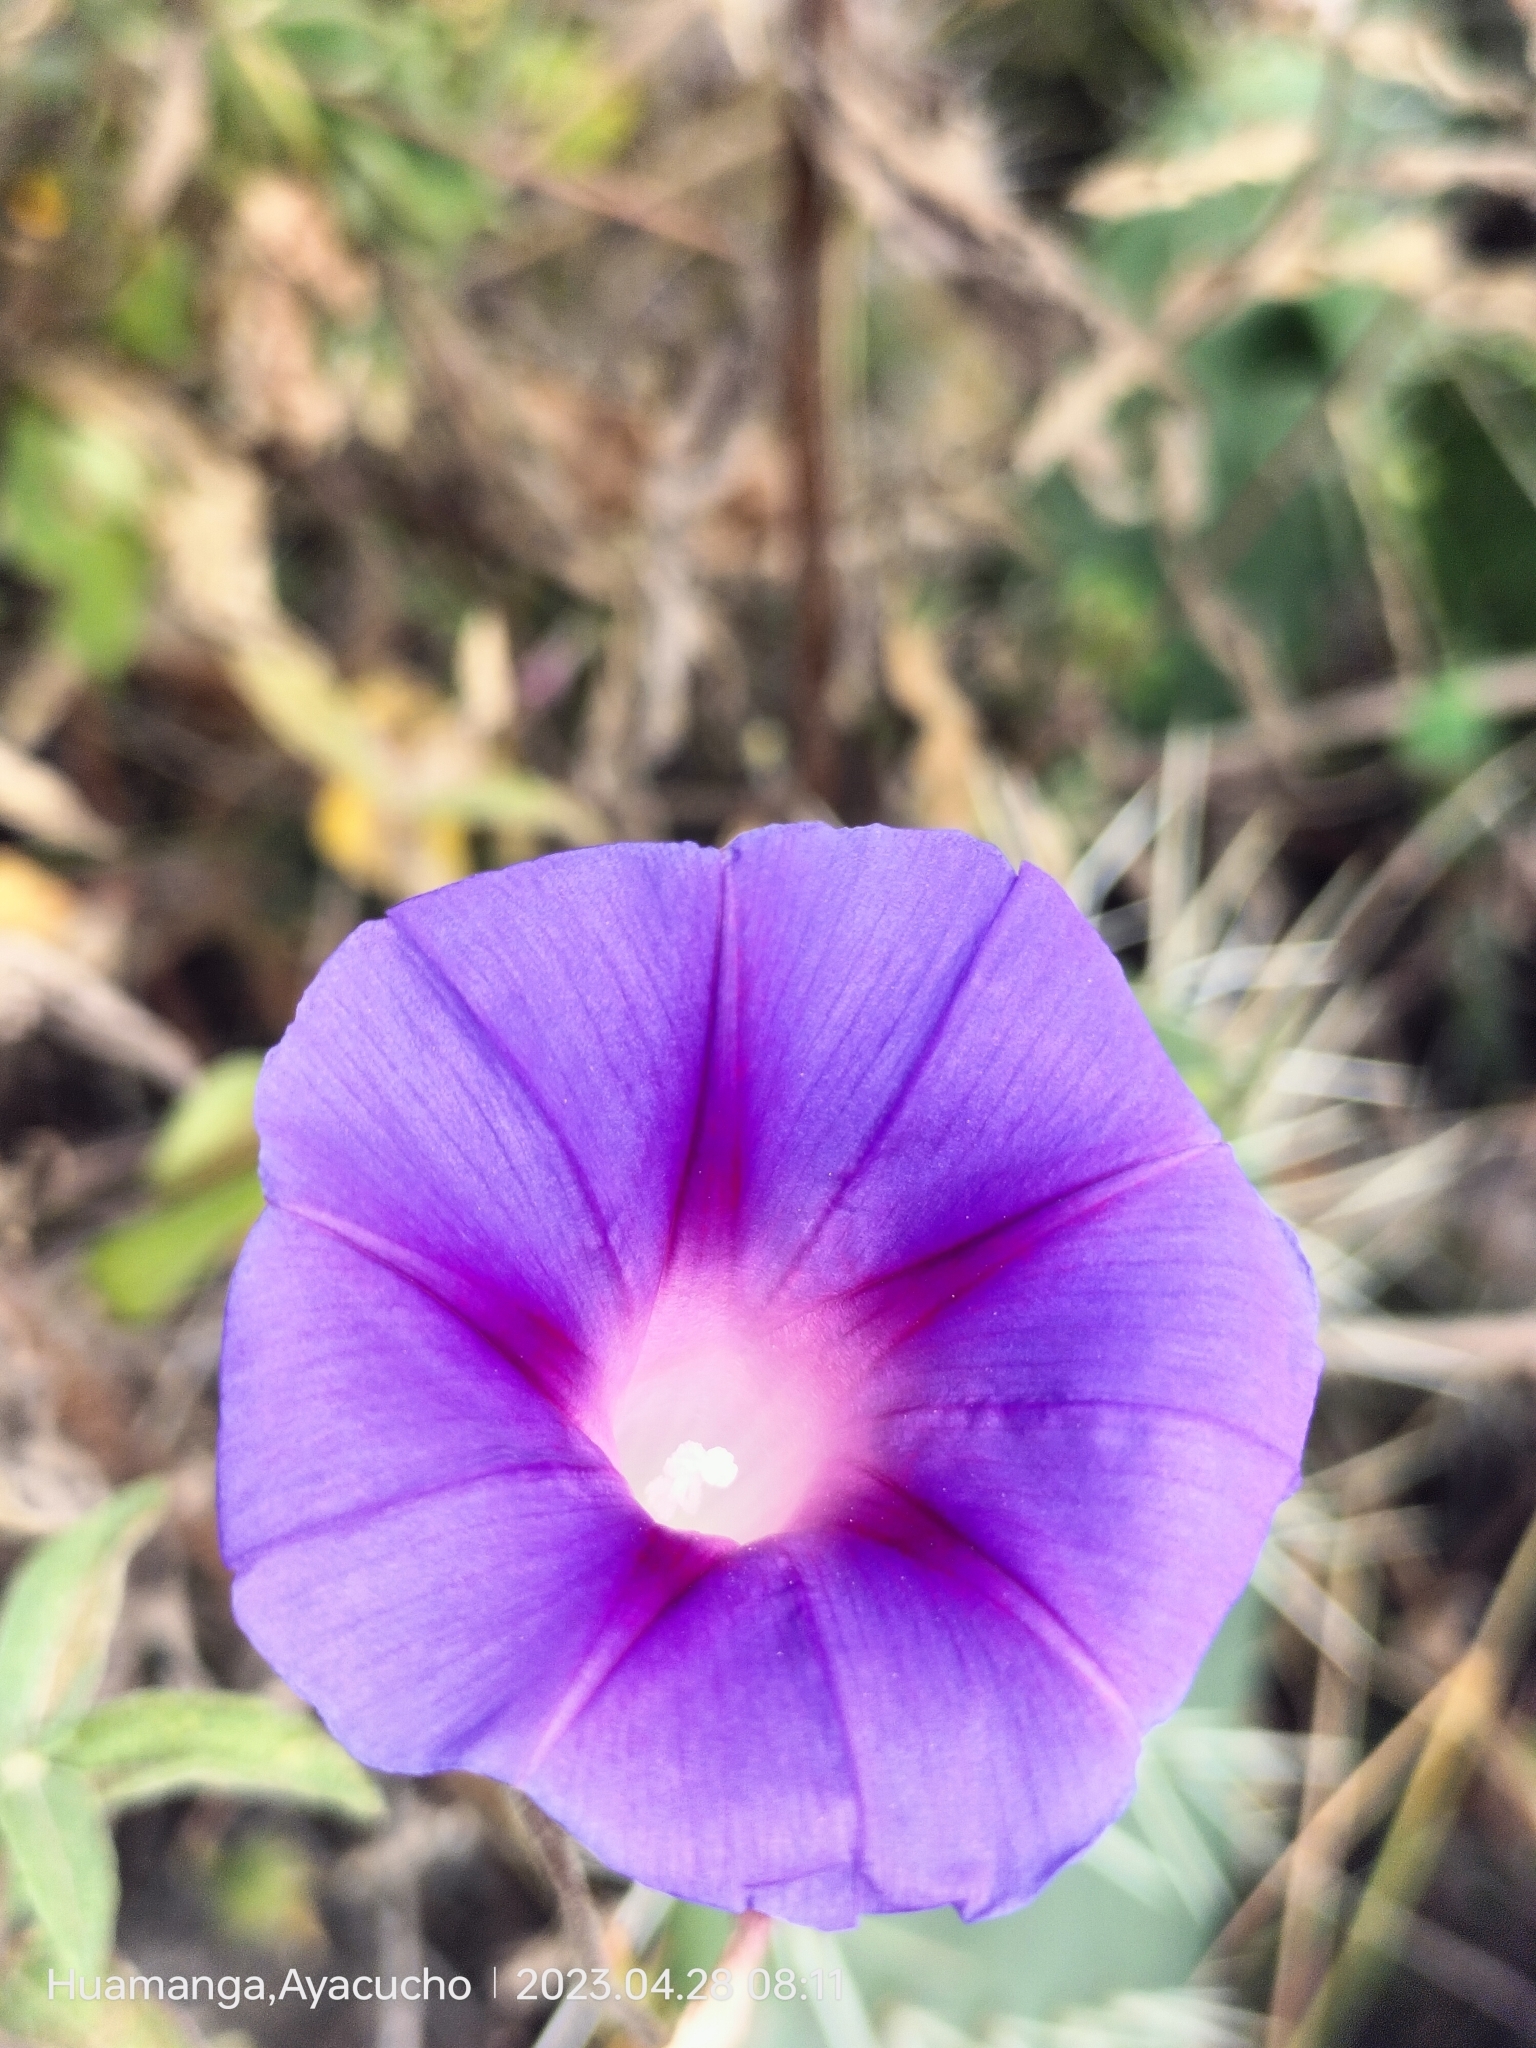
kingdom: Plantae
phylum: Tracheophyta
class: Magnoliopsida
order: Solanales
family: Convolvulaceae
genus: Ipomoea
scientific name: Ipomoea purpurea
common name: Common morning-glory
